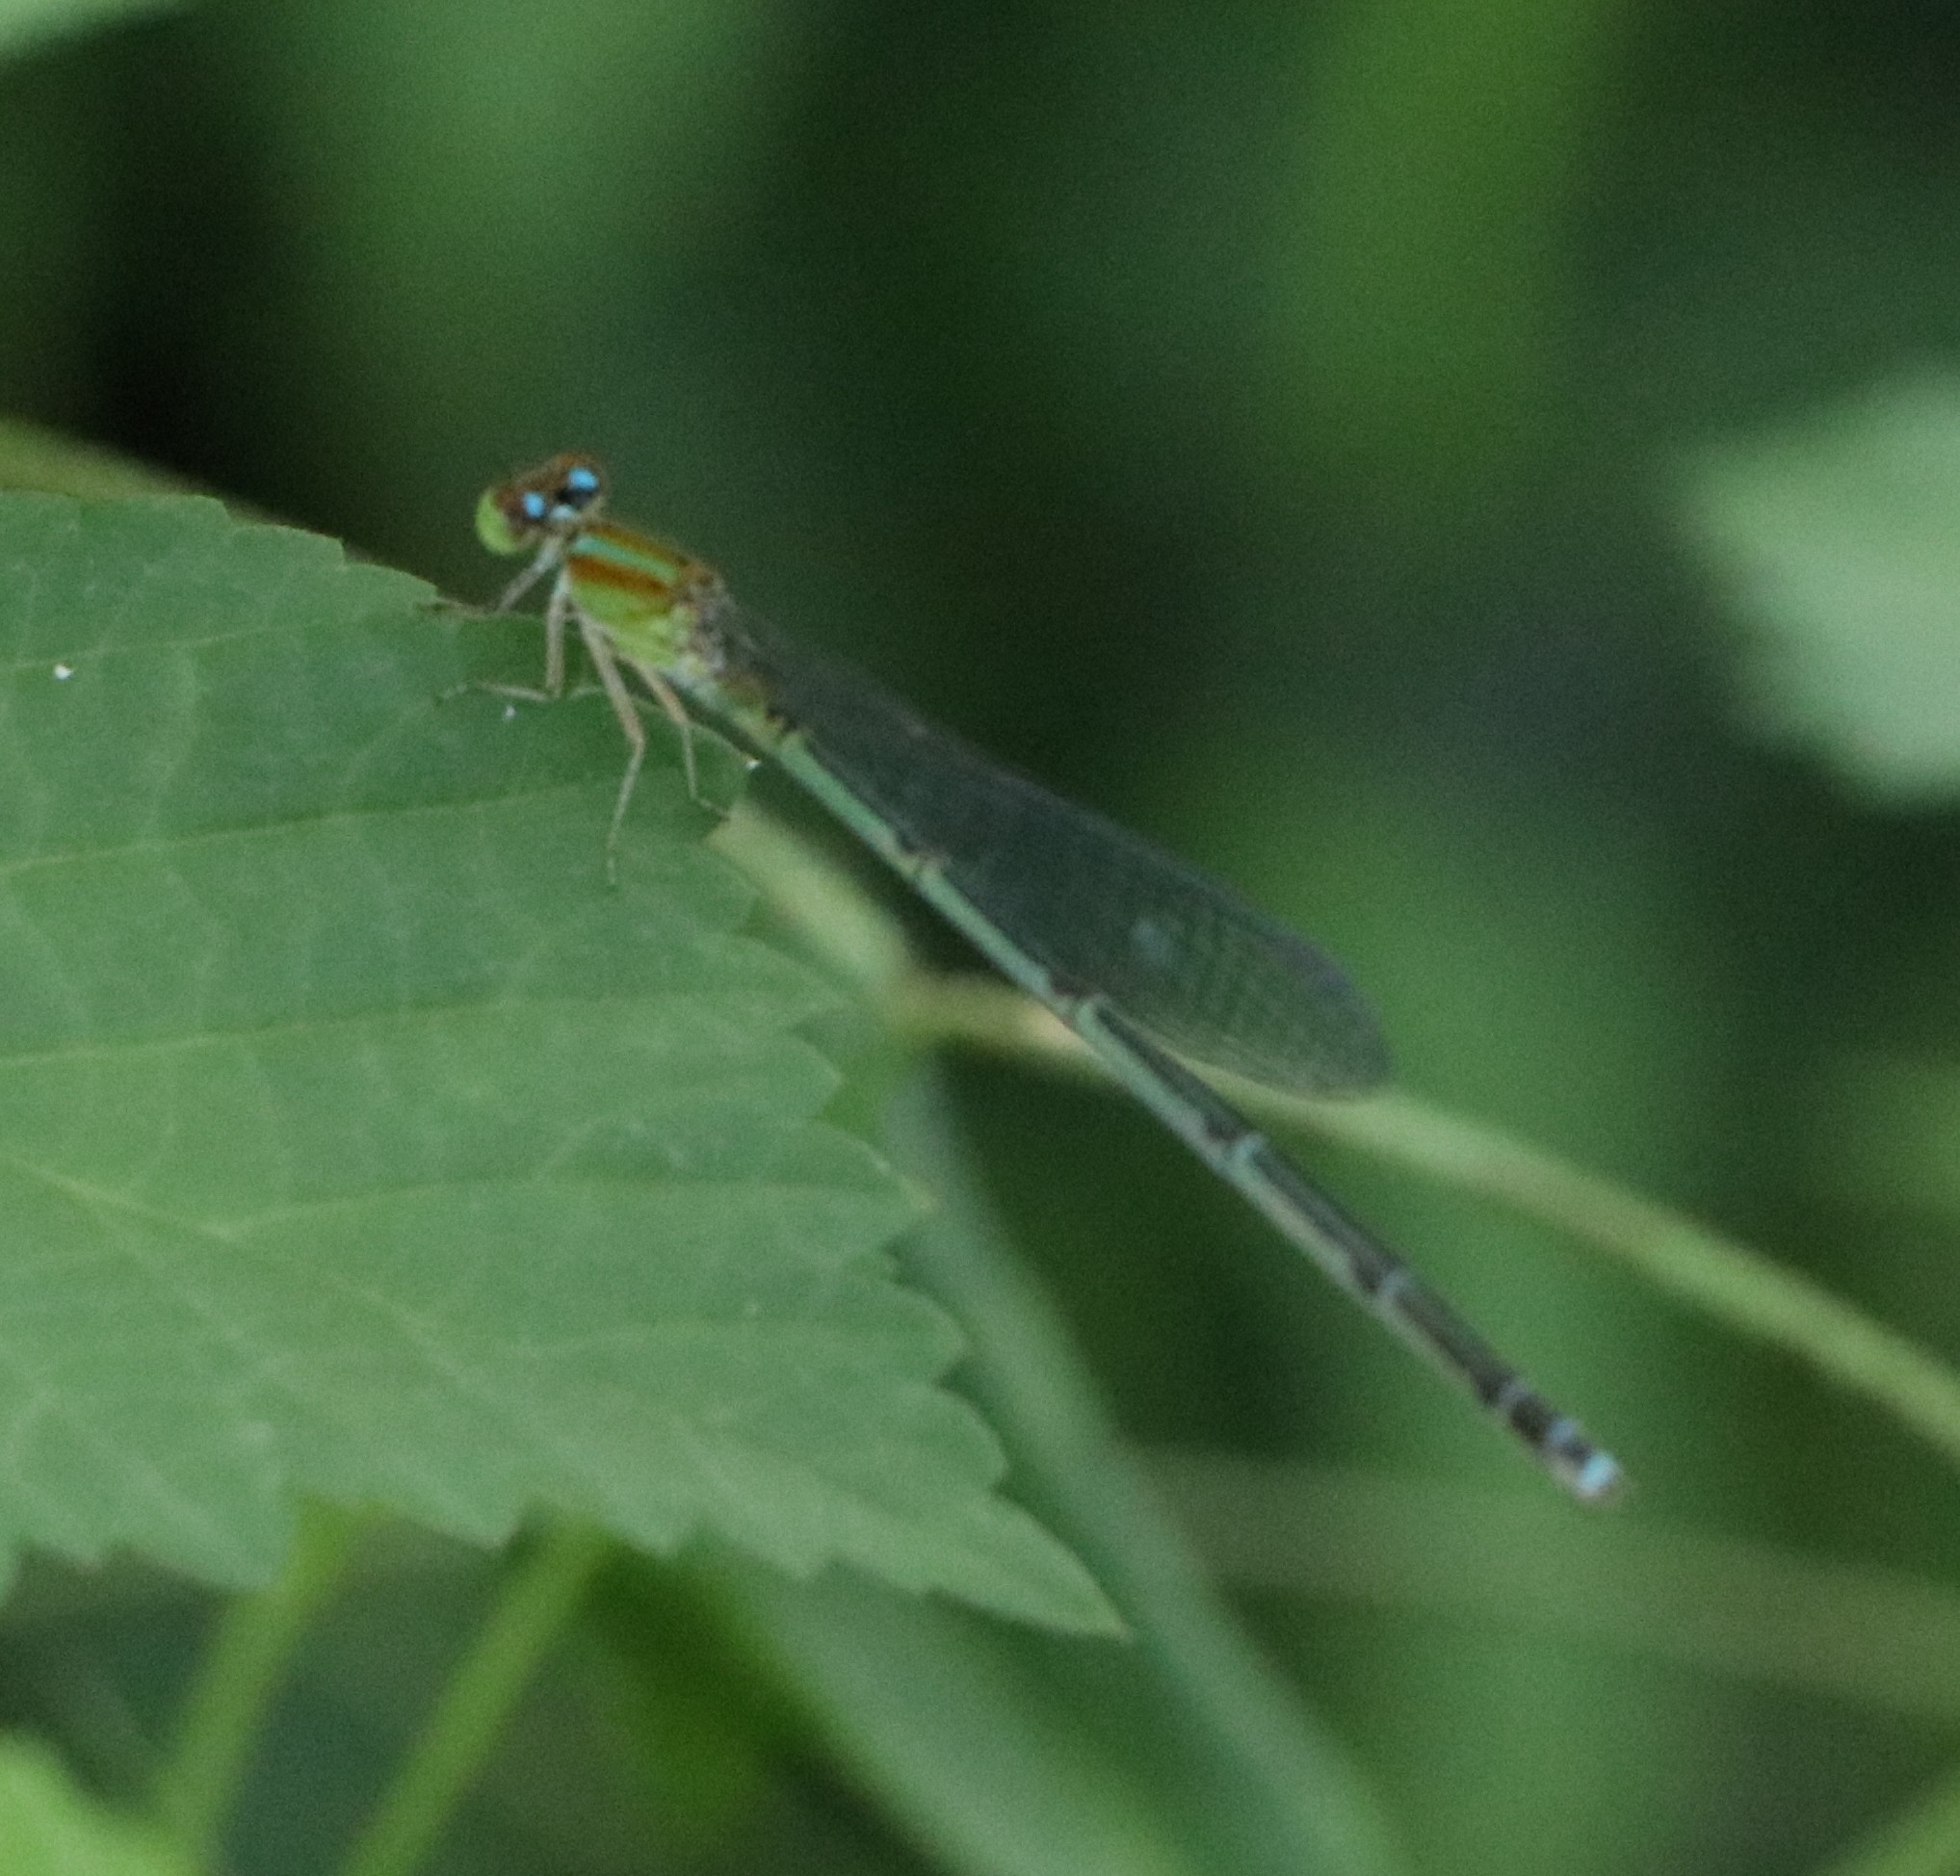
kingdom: Animalia
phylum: Arthropoda
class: Insecta
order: Odonata
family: Coenagrionidae
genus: Pseudagrion
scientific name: Pseudagrion microcephalum
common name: Blue riverdamsel
